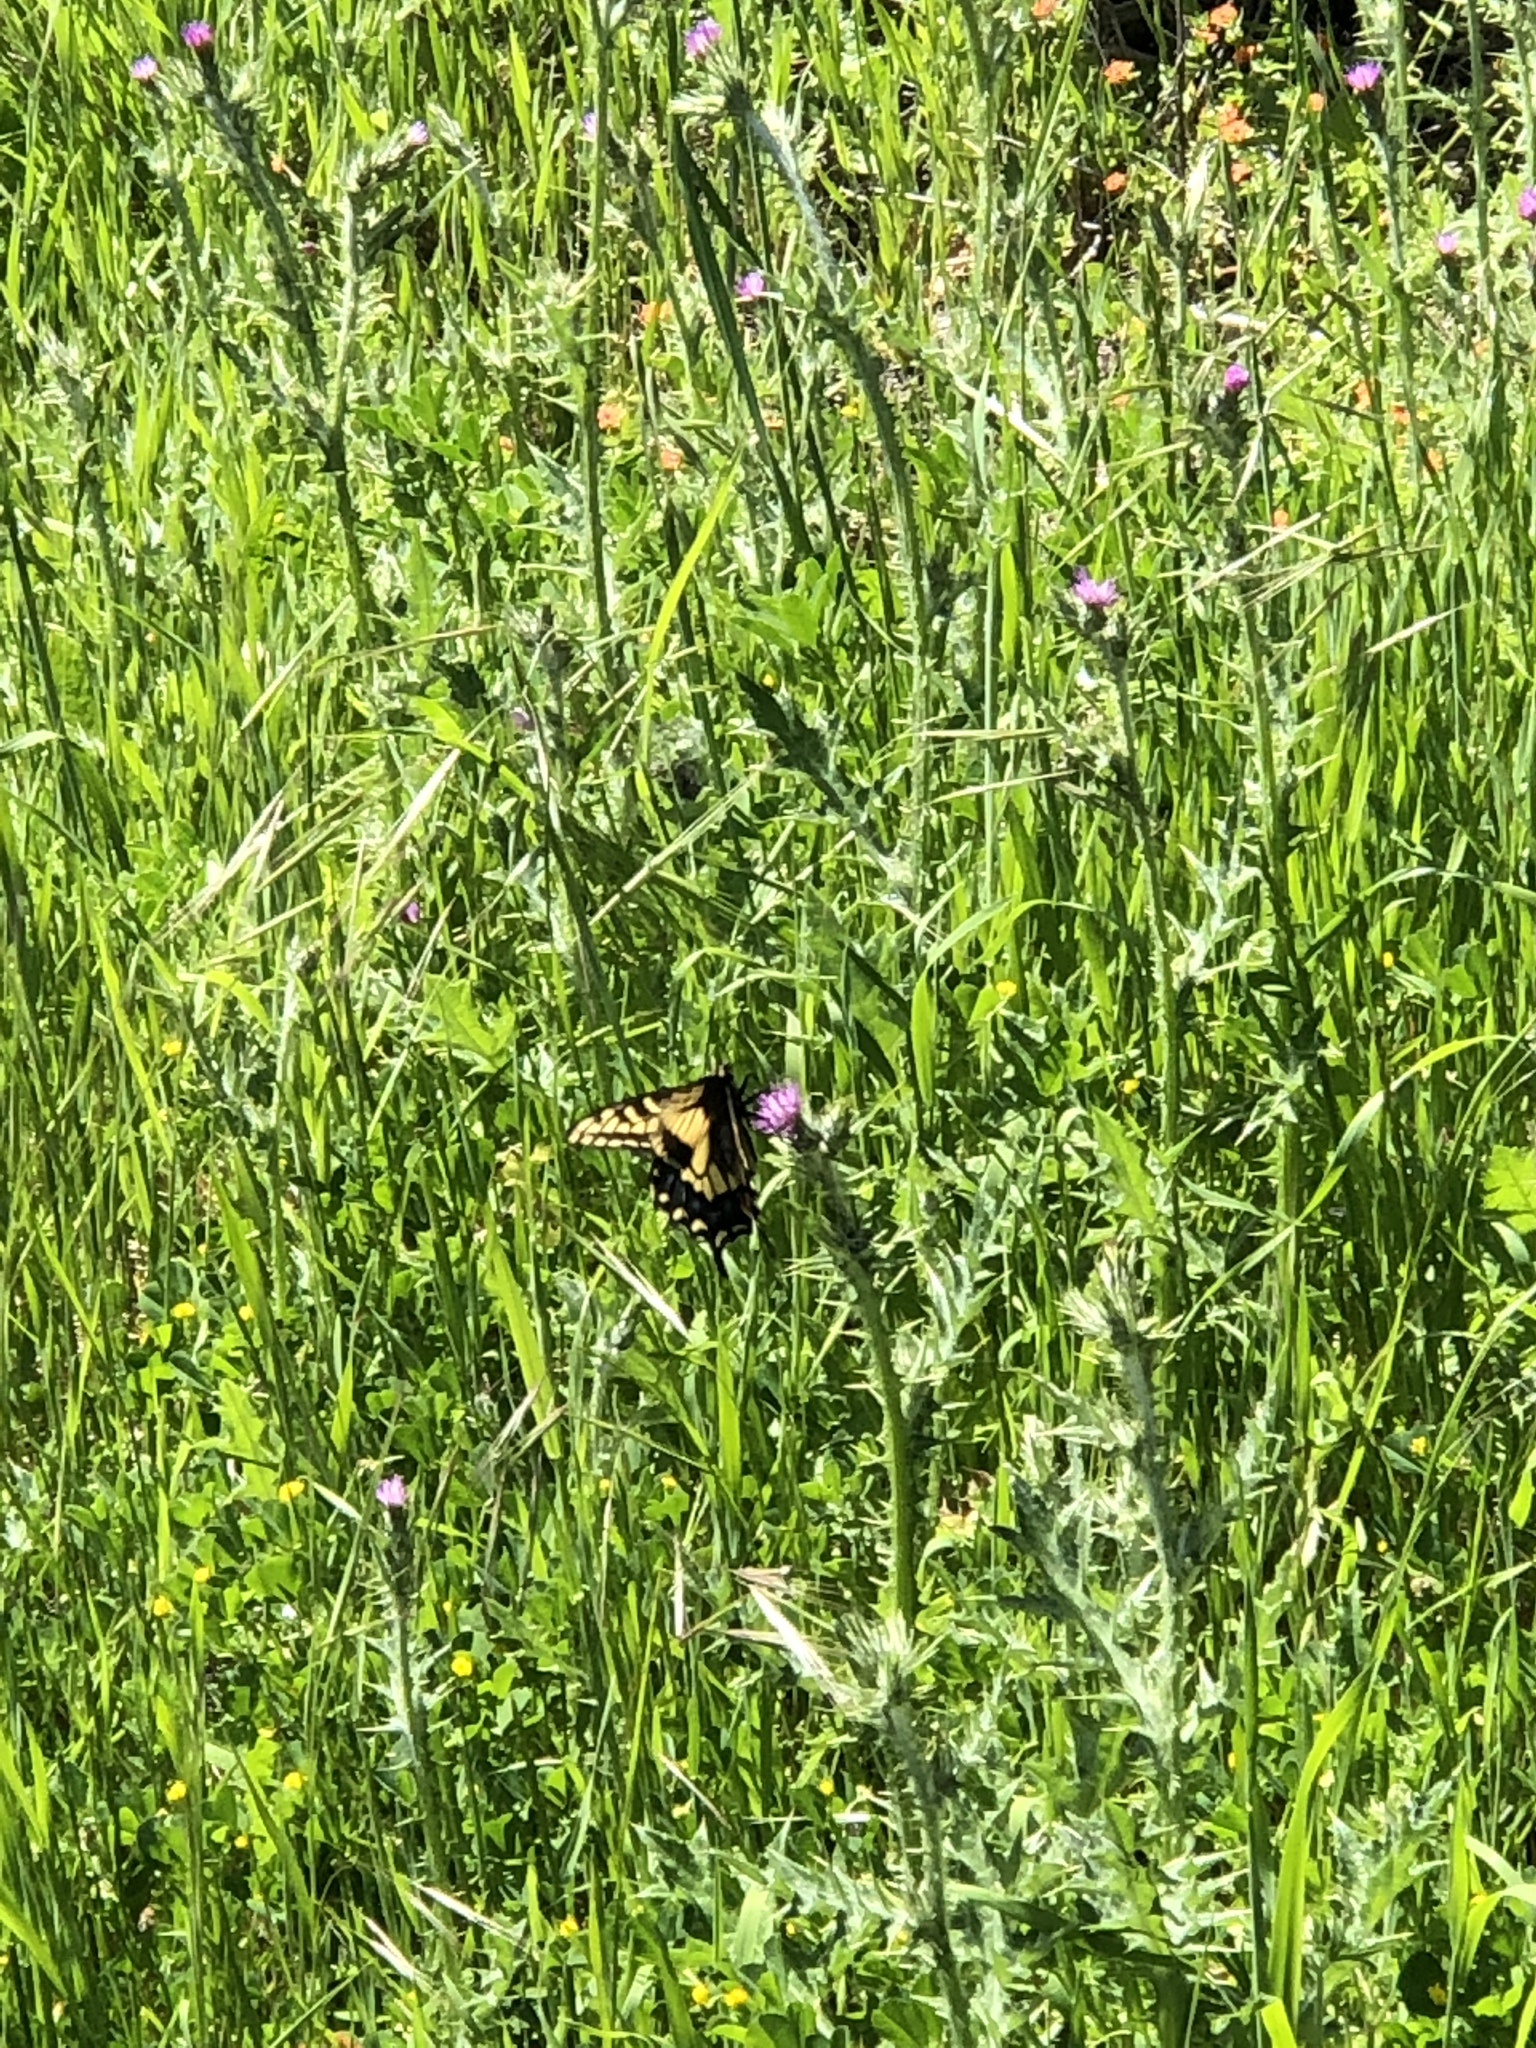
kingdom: Animalia
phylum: Arthropoda
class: Insecta
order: Lepidoptera
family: Papilionidae
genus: Papilio
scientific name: Papilio zelicaon
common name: Anise swallowtail
